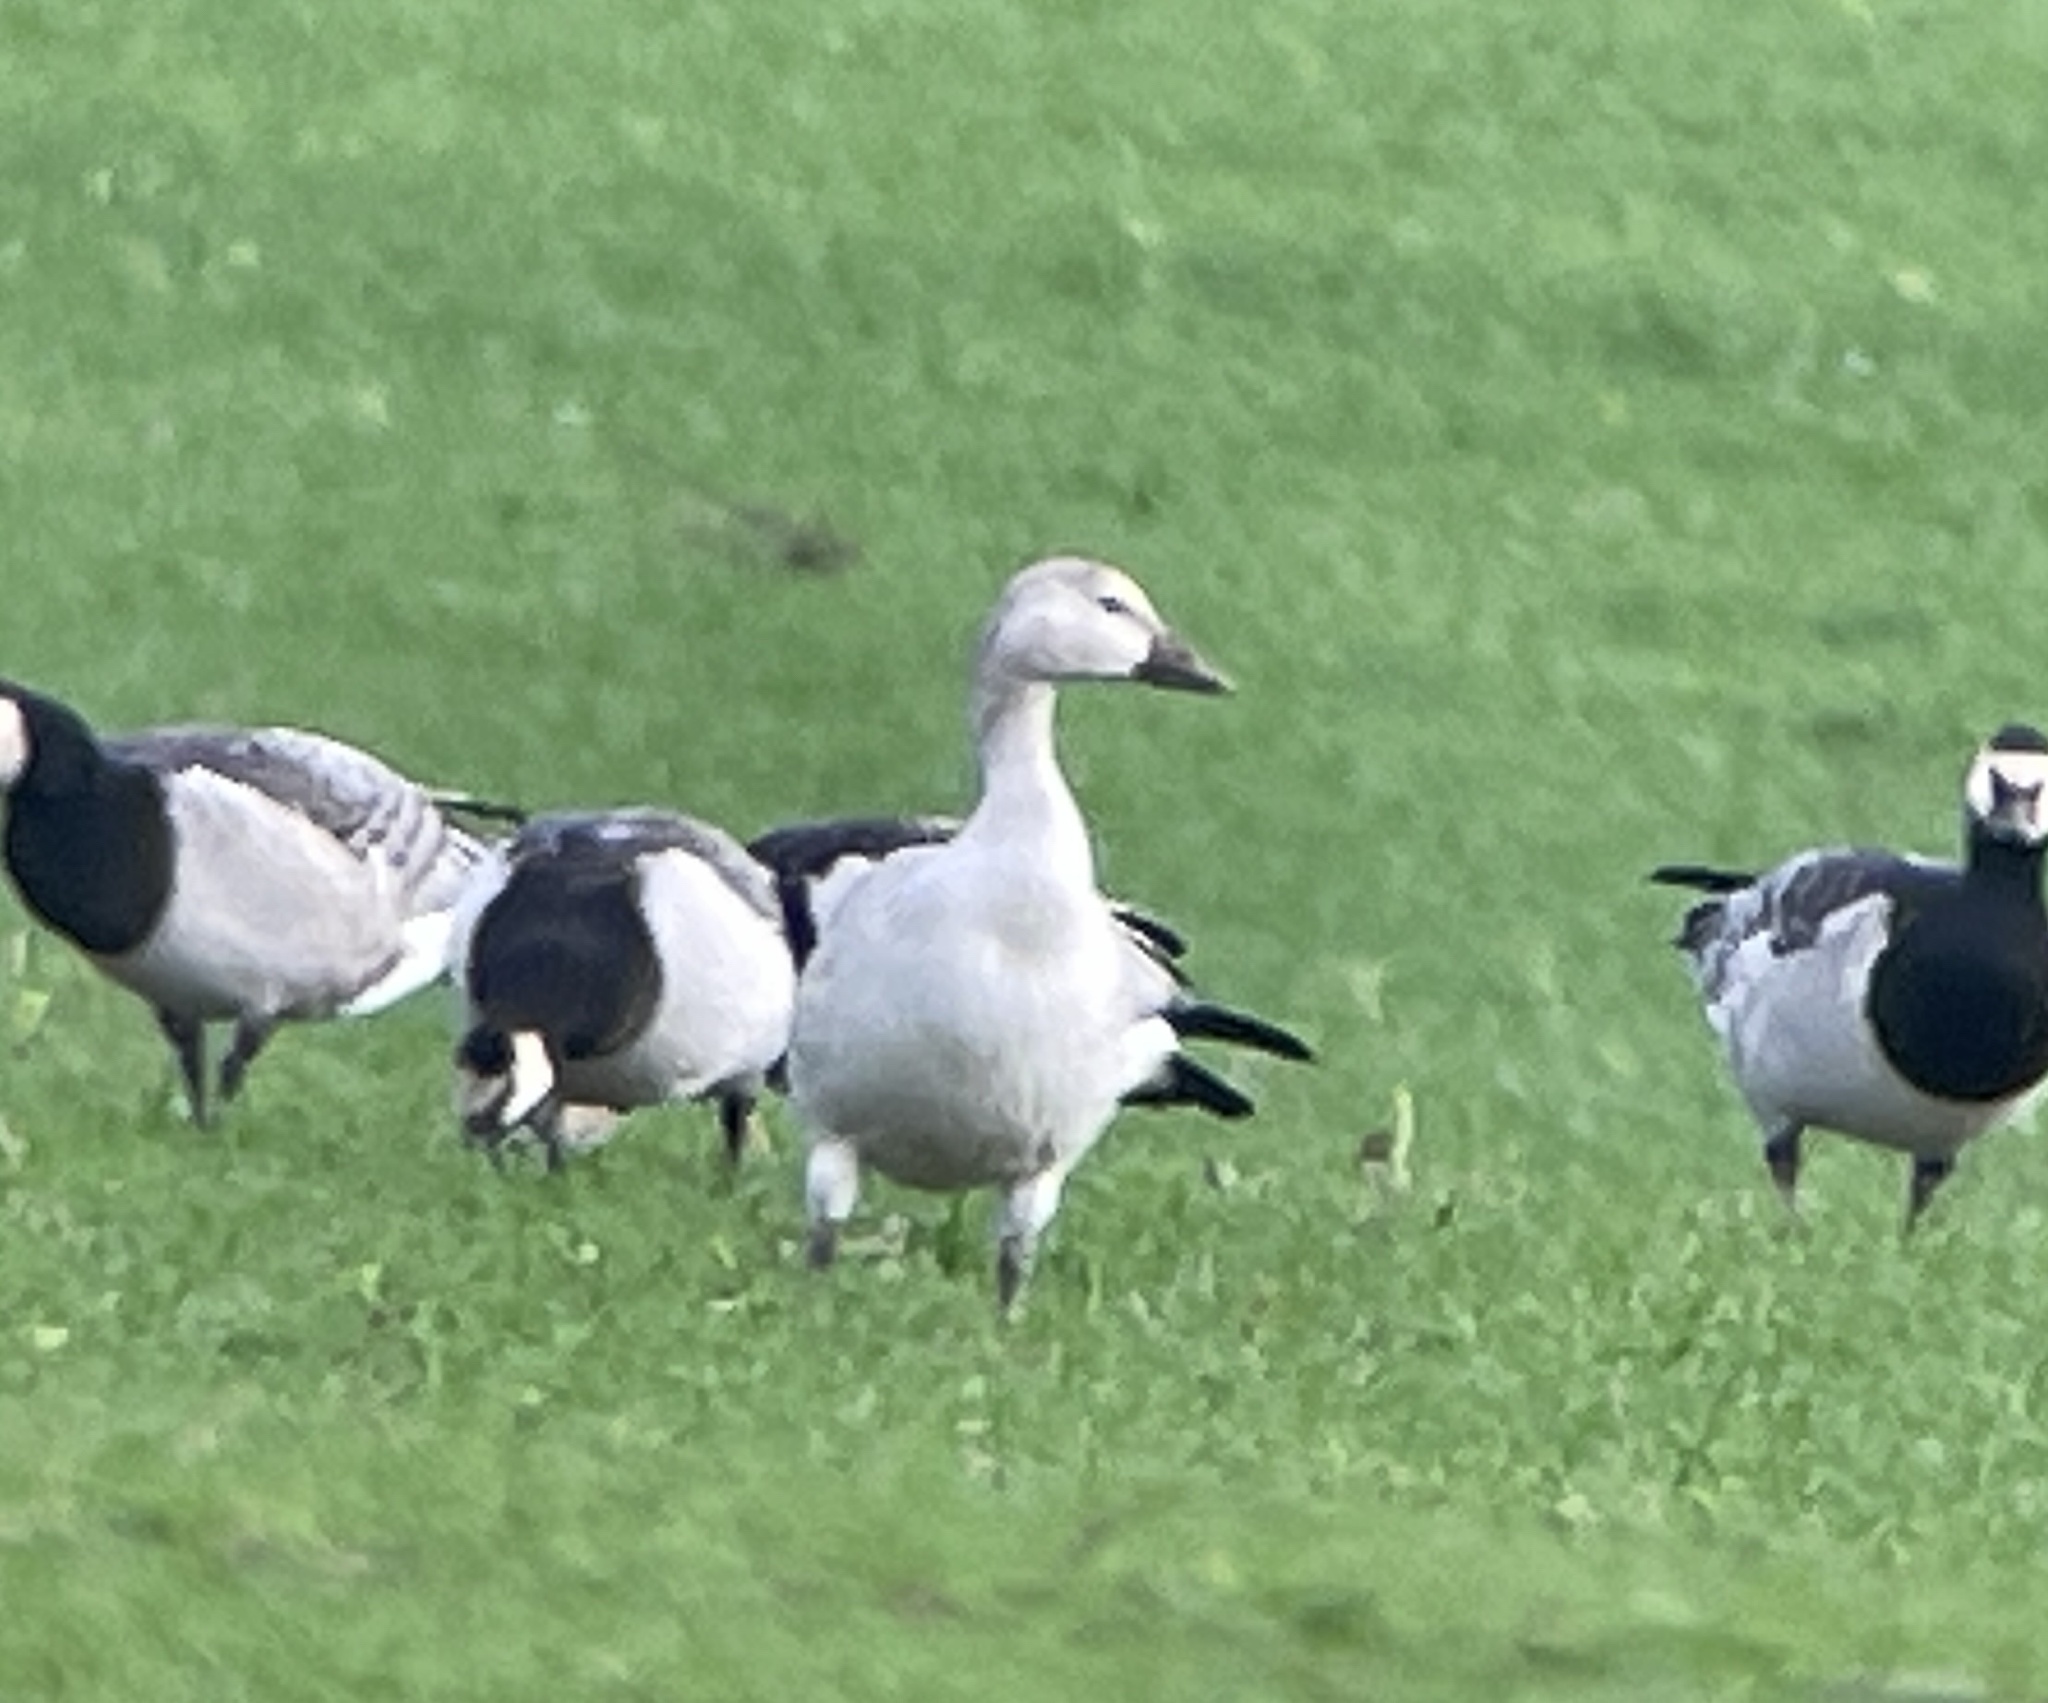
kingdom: Animalia
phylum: Chordata
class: Aves
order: Anseriformes
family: Anatidae
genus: Anser
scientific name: Anser caerulescens
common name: Snow goose
